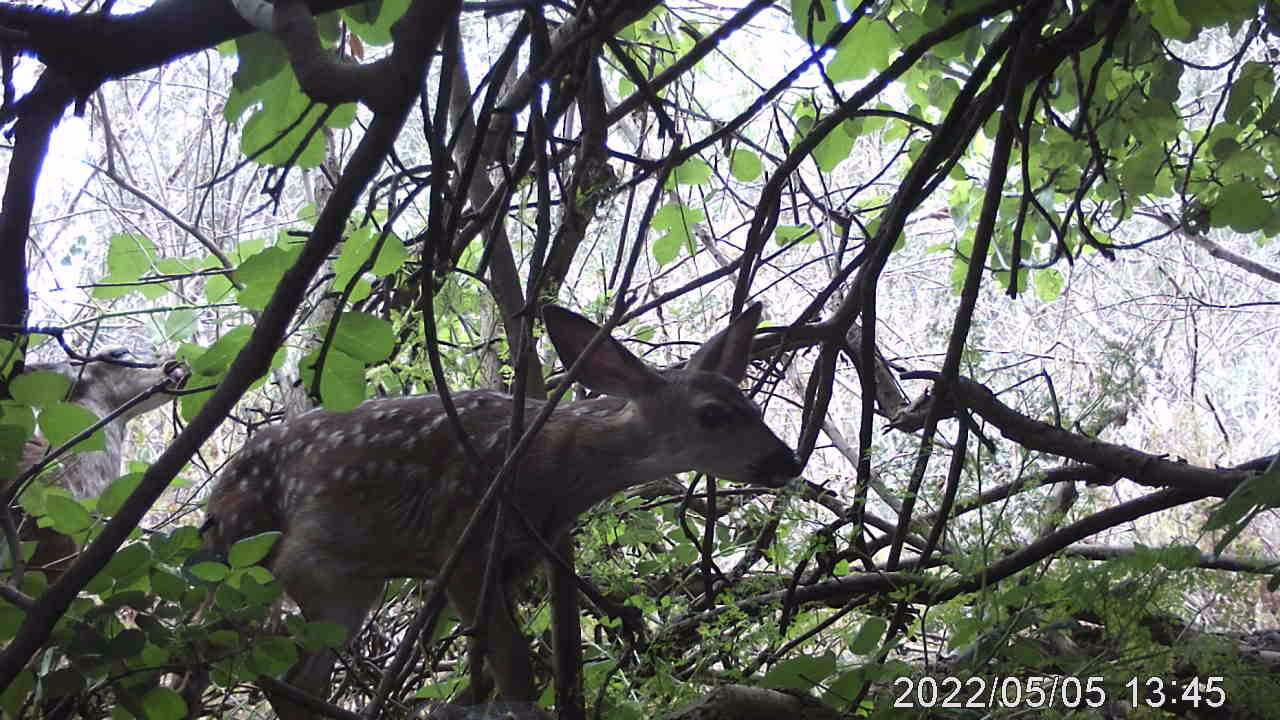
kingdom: Animalia
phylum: Chordata
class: Mammalia
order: Artiodactyla
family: Cervidae
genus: Odocoileus
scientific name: Odocoileus hemionus
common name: Mule deer
